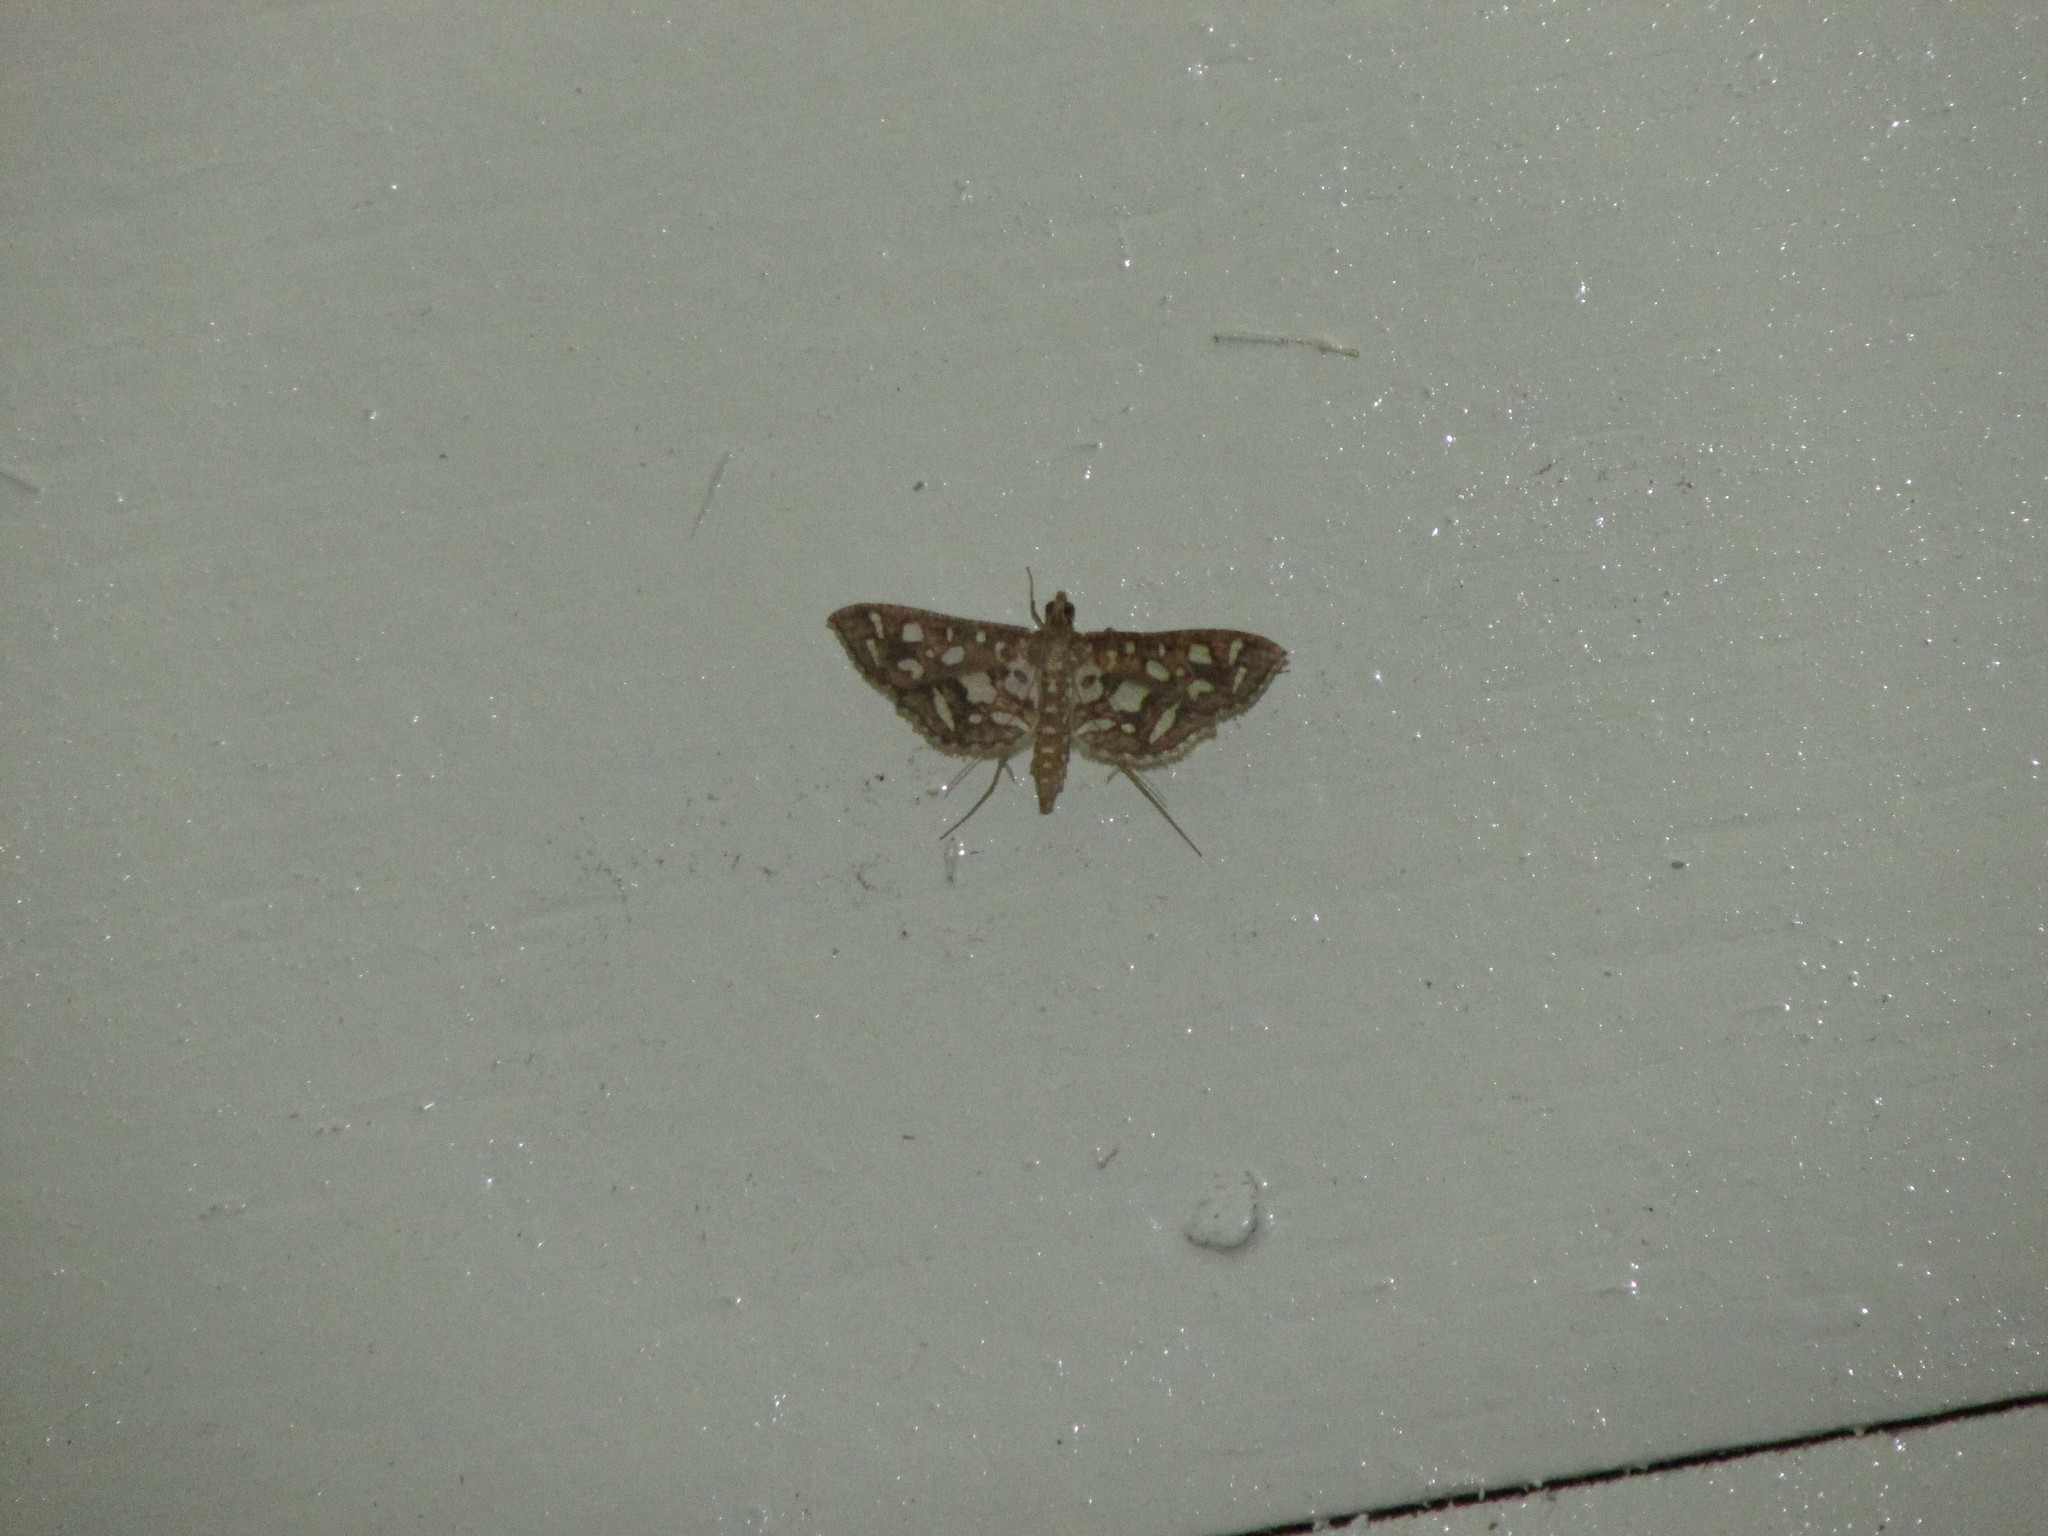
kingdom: Animalia
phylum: Arthropoda
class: Insecta
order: Lepidoptera
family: Crambidae
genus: Nausinoe
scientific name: Nausinoe geometralis
